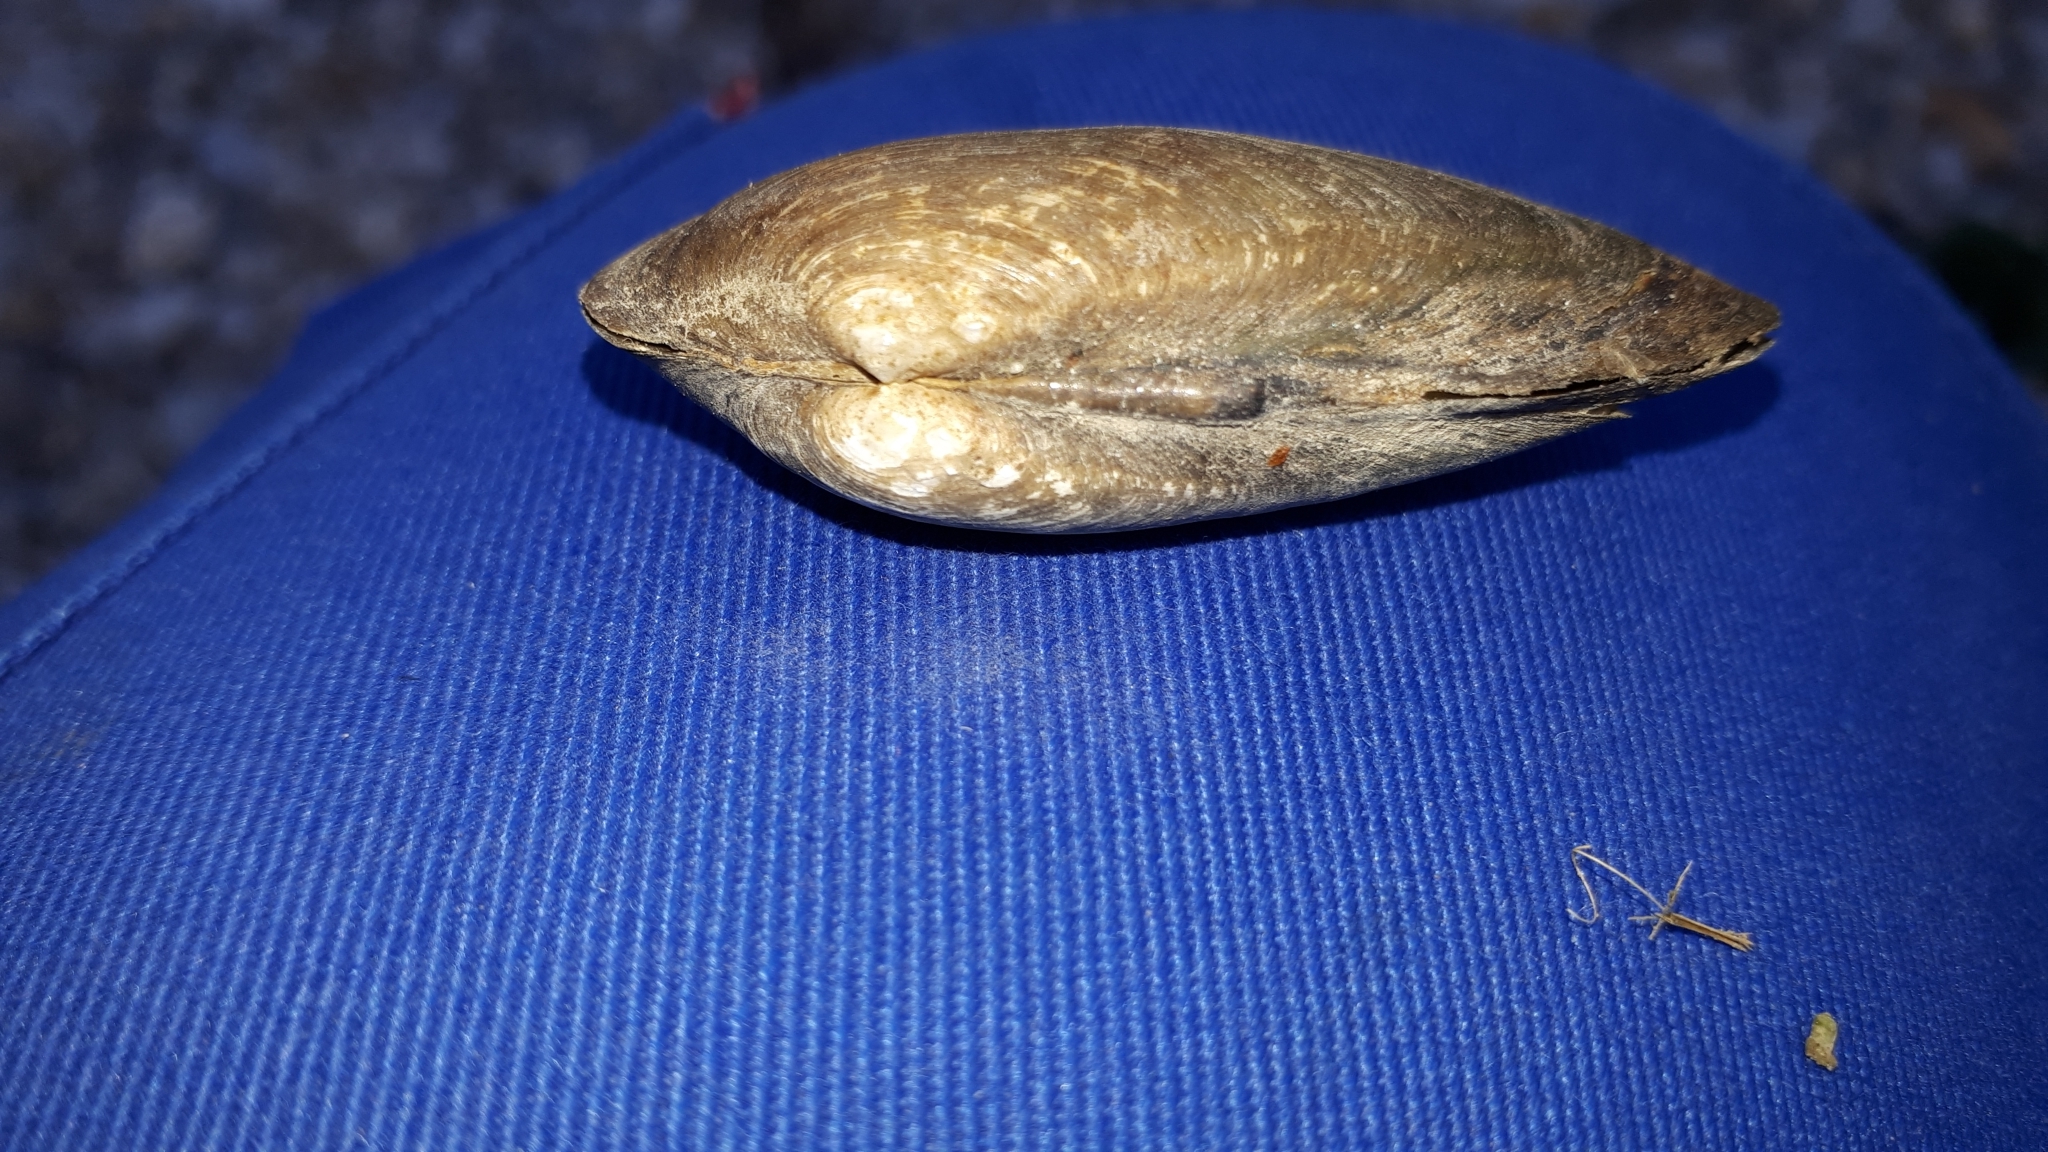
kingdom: Animalia
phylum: Mollusca
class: Bivalvia
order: Unionida
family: Unionidae
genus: Unio
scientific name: Unio pictorum
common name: Painter's mussel
